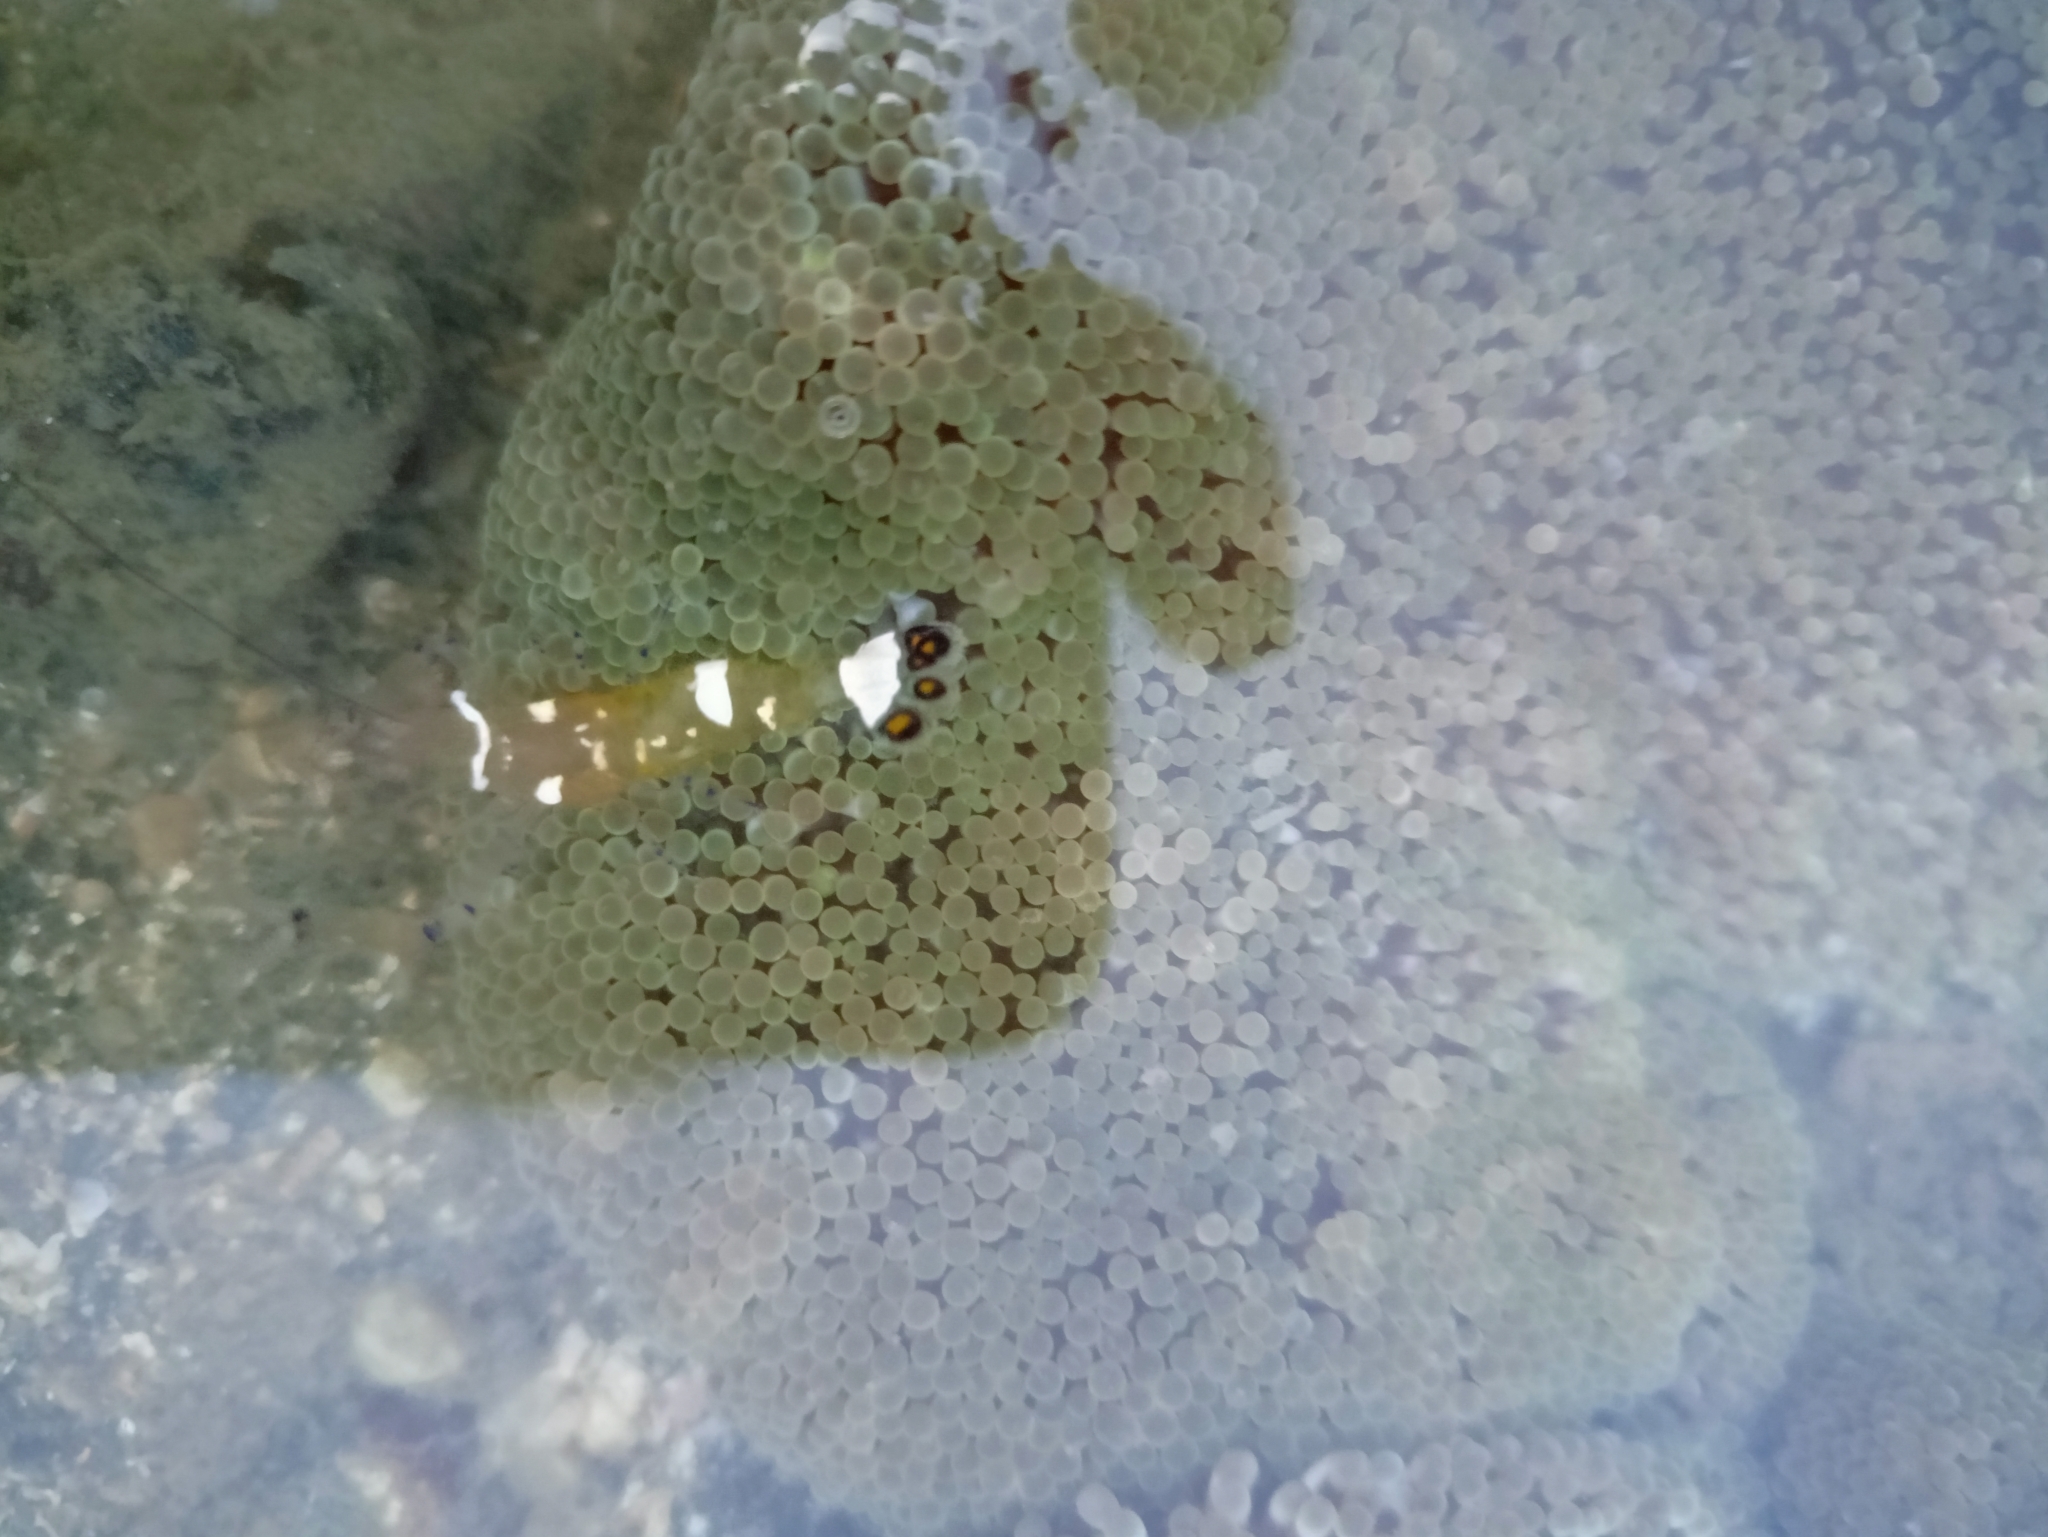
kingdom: Animalia
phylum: Arthropoda
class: Malacostraca
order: Decapoda
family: Palaemonidae
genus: Ancylocaris
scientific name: Ancylocaris brevicarpalis
